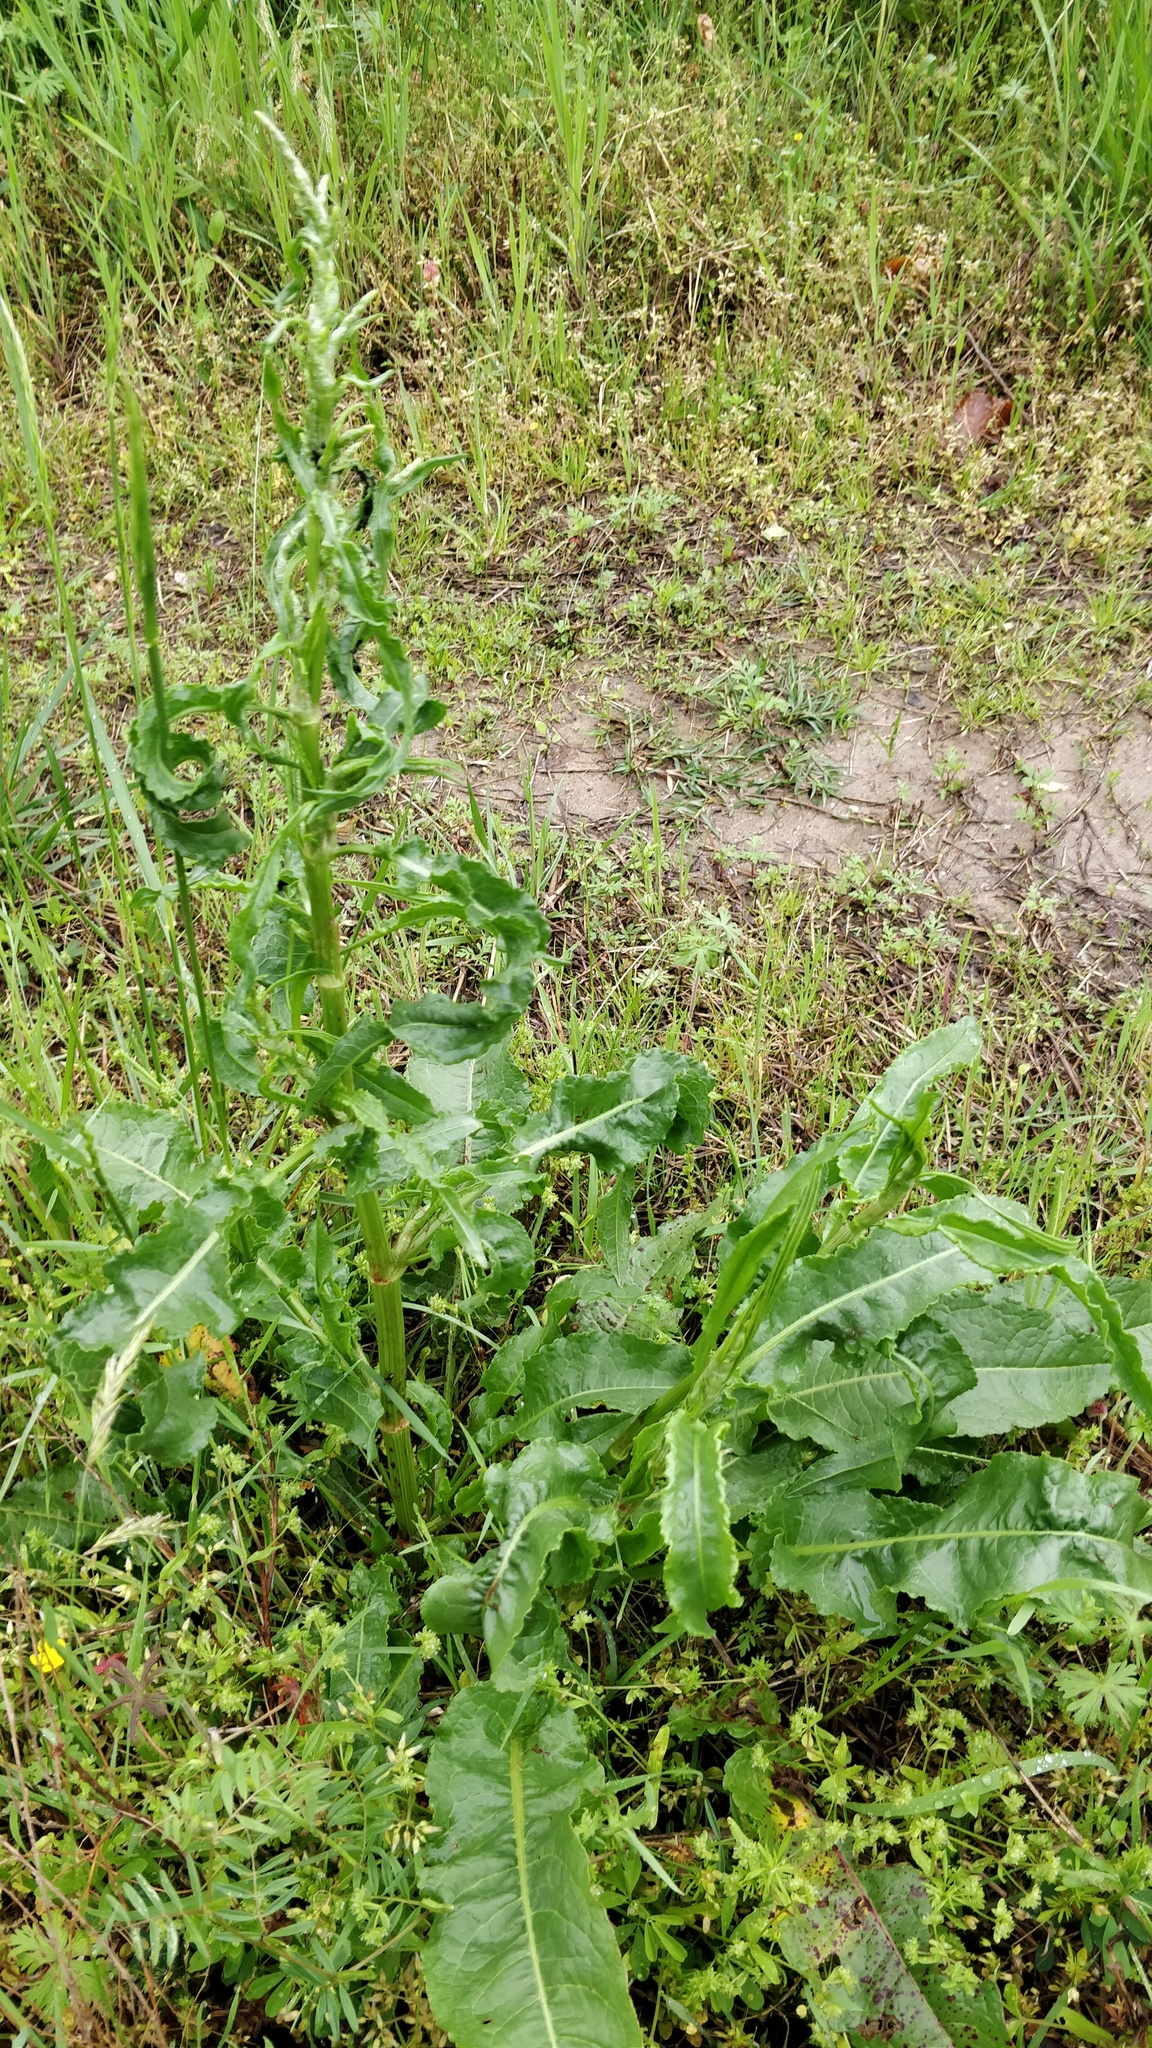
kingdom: Plantae
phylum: Tracheophyta
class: Magnoliopsida
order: Caryophyllales
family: Polygonaceae
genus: Rumex
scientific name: Rumex crispus
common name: Curled dock
